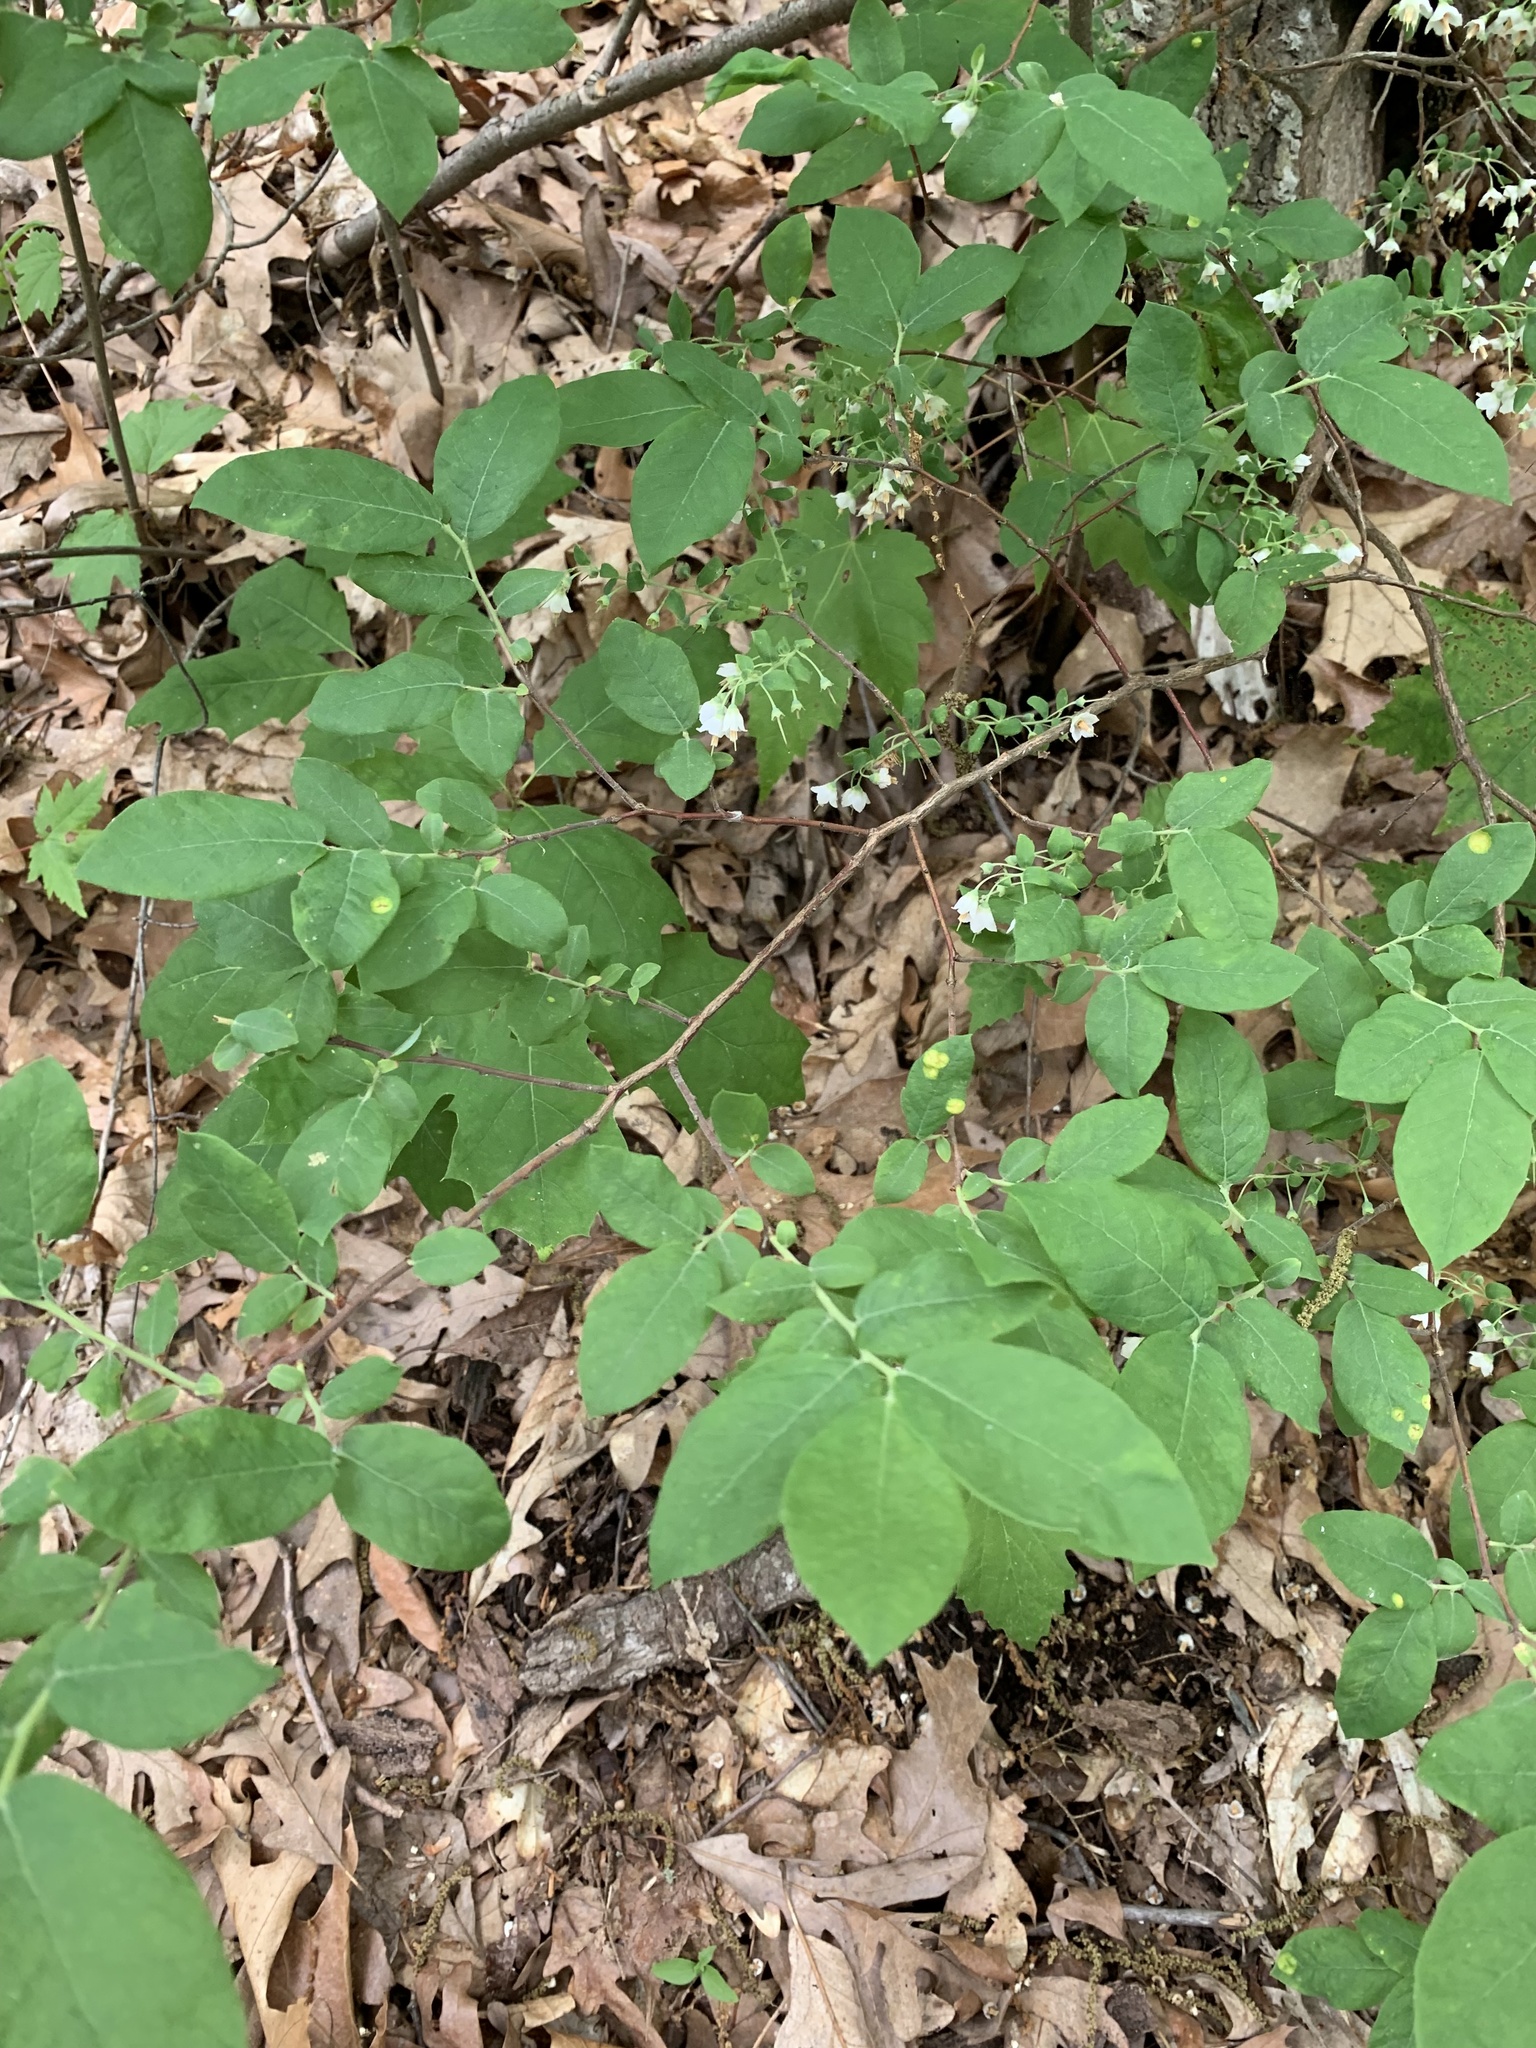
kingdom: Plantae
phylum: Tracheophyta
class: Magnoliopsida
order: Ericales
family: Ericaceae
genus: Vaccinium
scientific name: Vaccinium stamineum
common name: Deerberry
